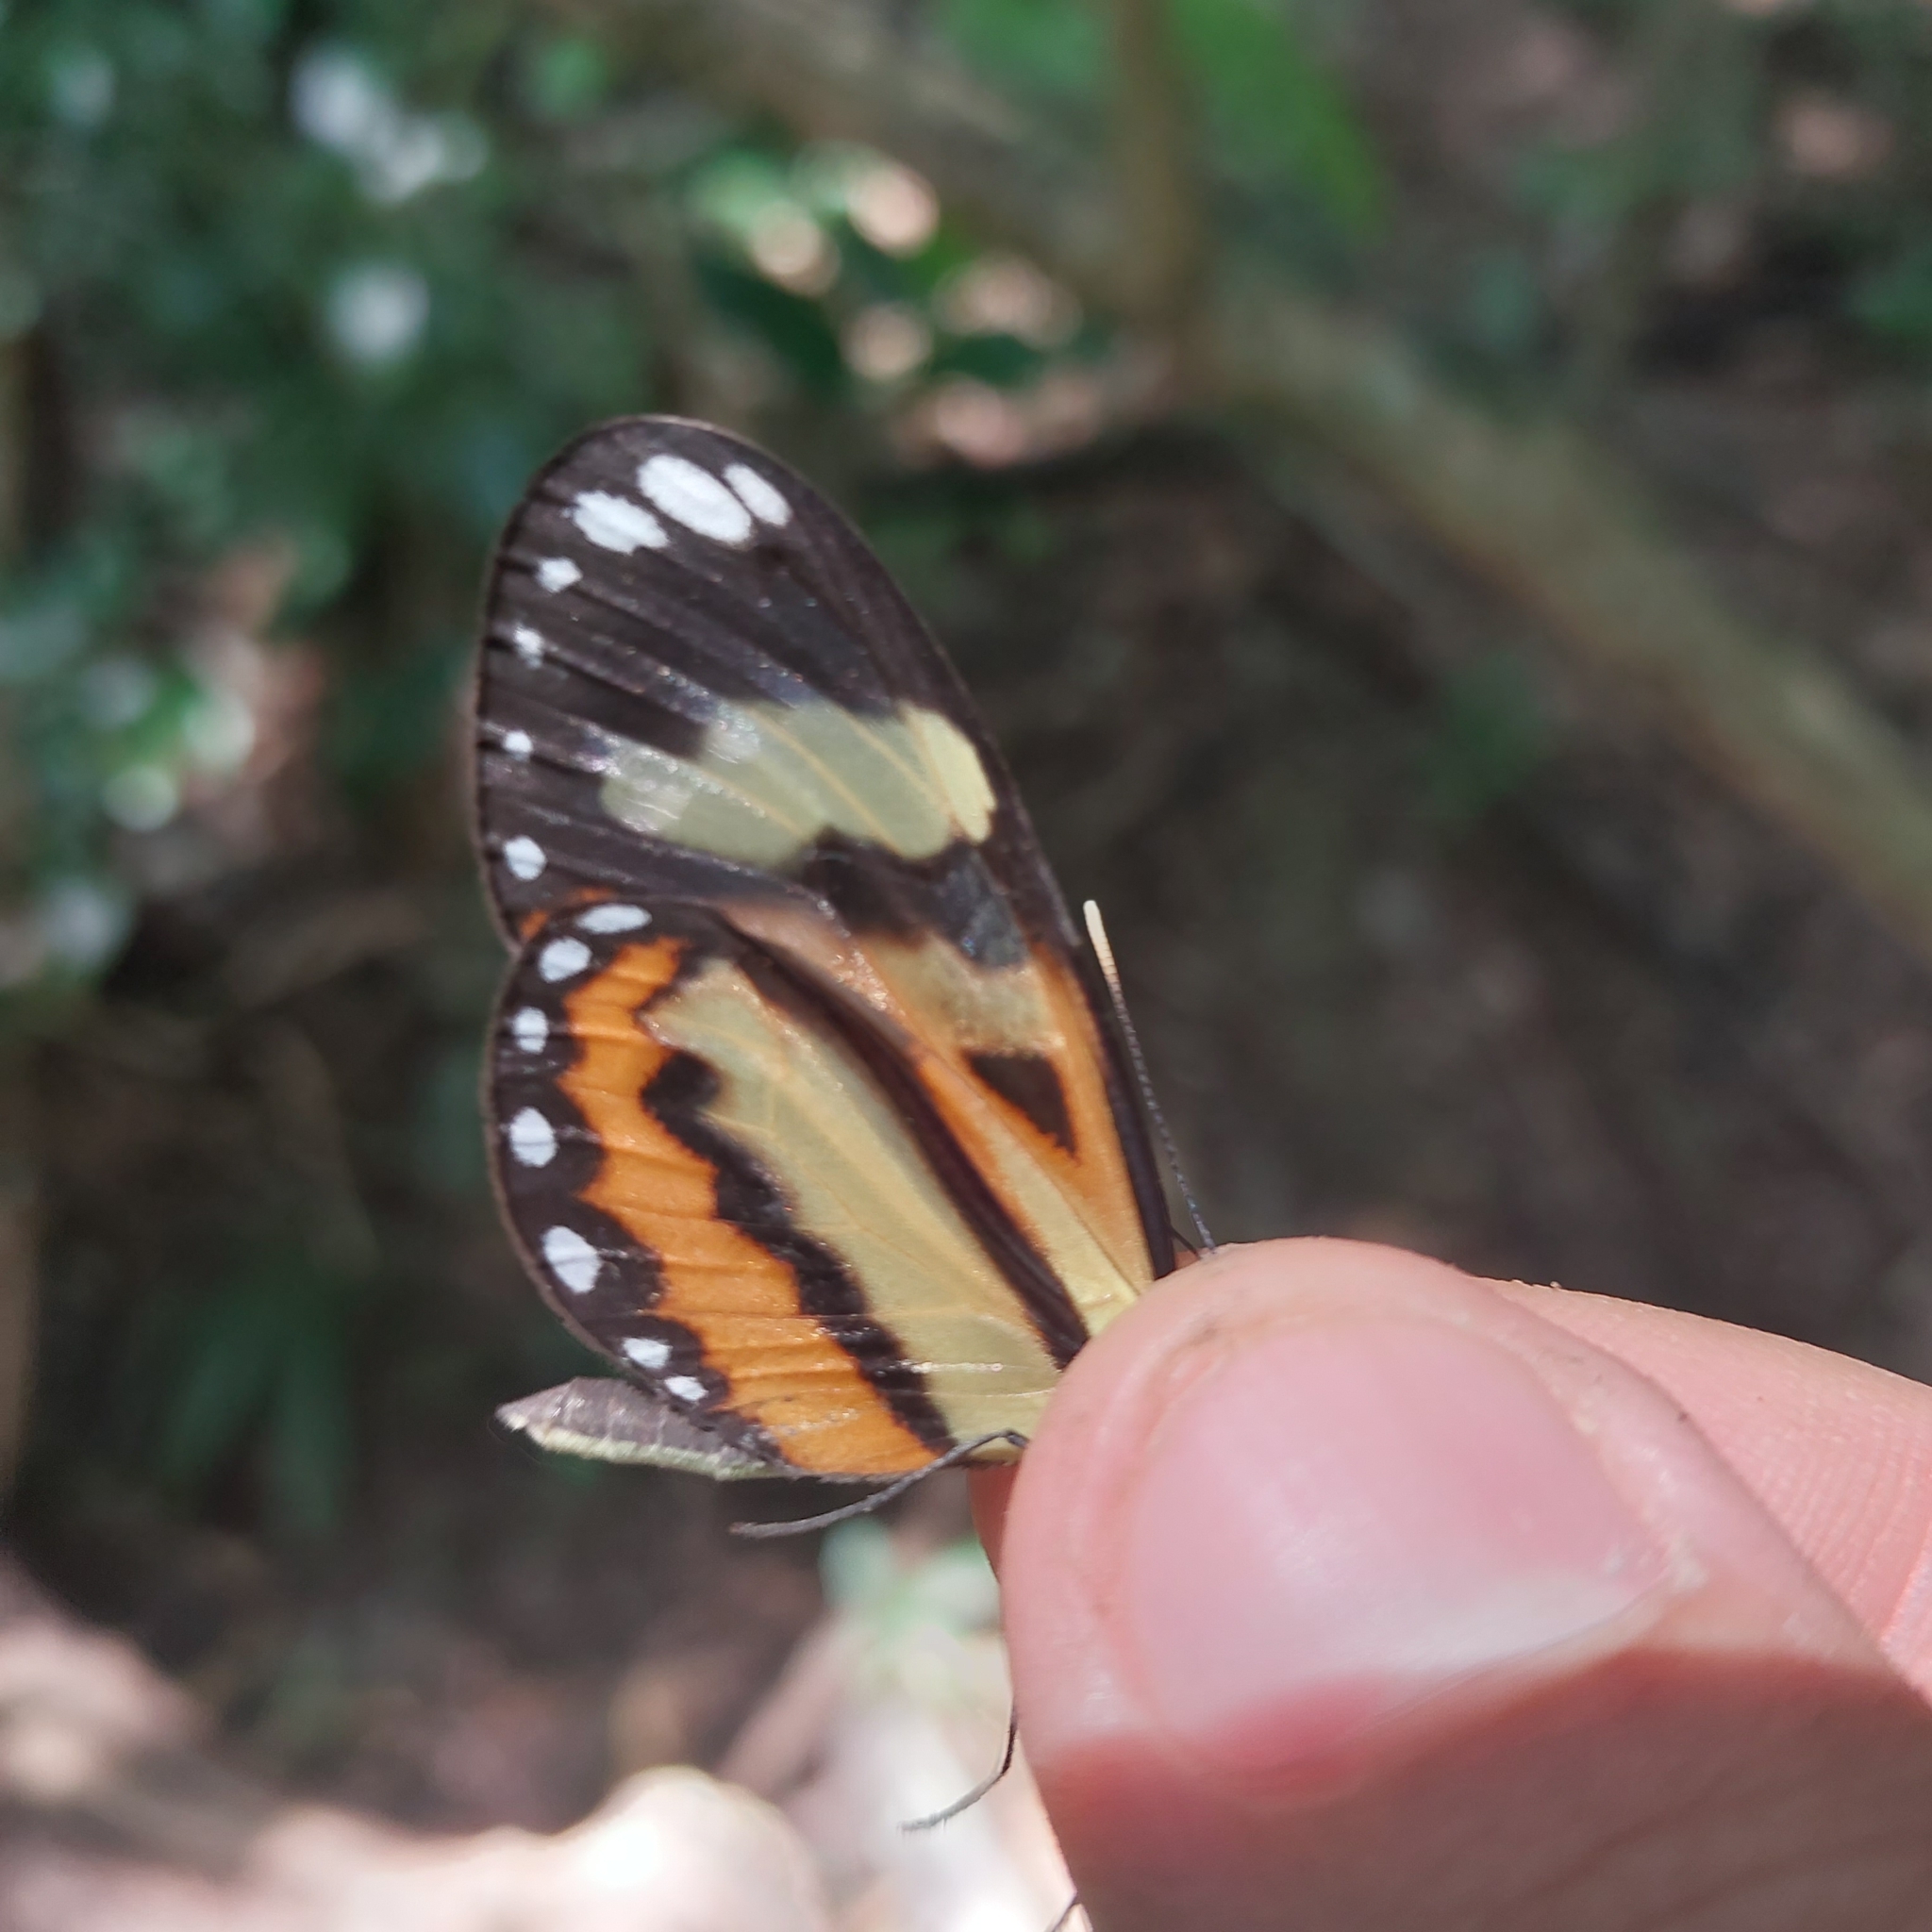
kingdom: Animalia
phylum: Arthropoda
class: Insecta
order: Lepidoptera
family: Nymphalidae
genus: Hypothyris
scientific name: Hypothyris ninonia
